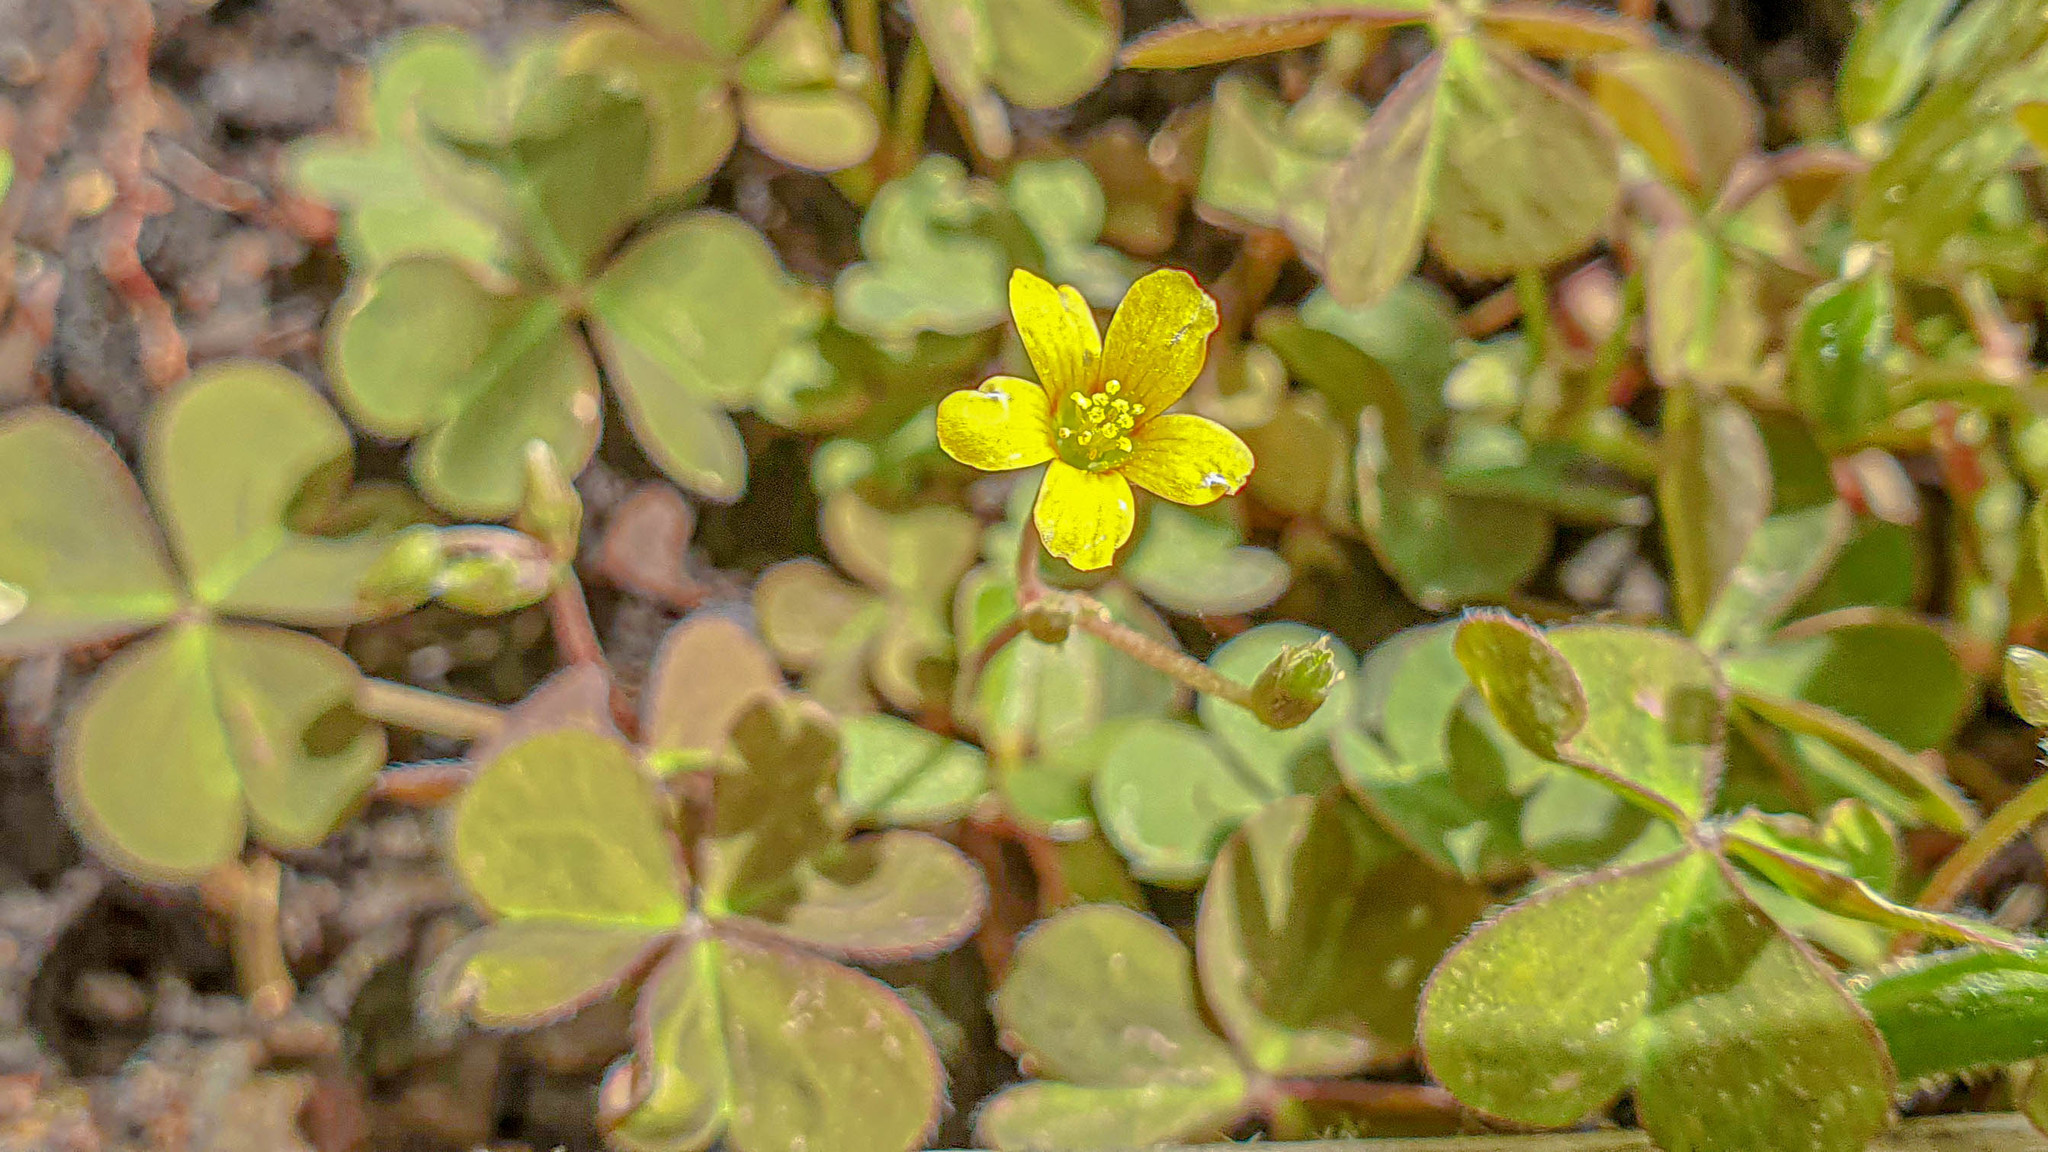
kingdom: Plantae
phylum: Tracheophyta
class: Magnoliopsida
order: Oxalidales
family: Oxalidaceae
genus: Oxalis
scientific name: Oxalis corniculata
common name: Procumbent yellow-sorrel
